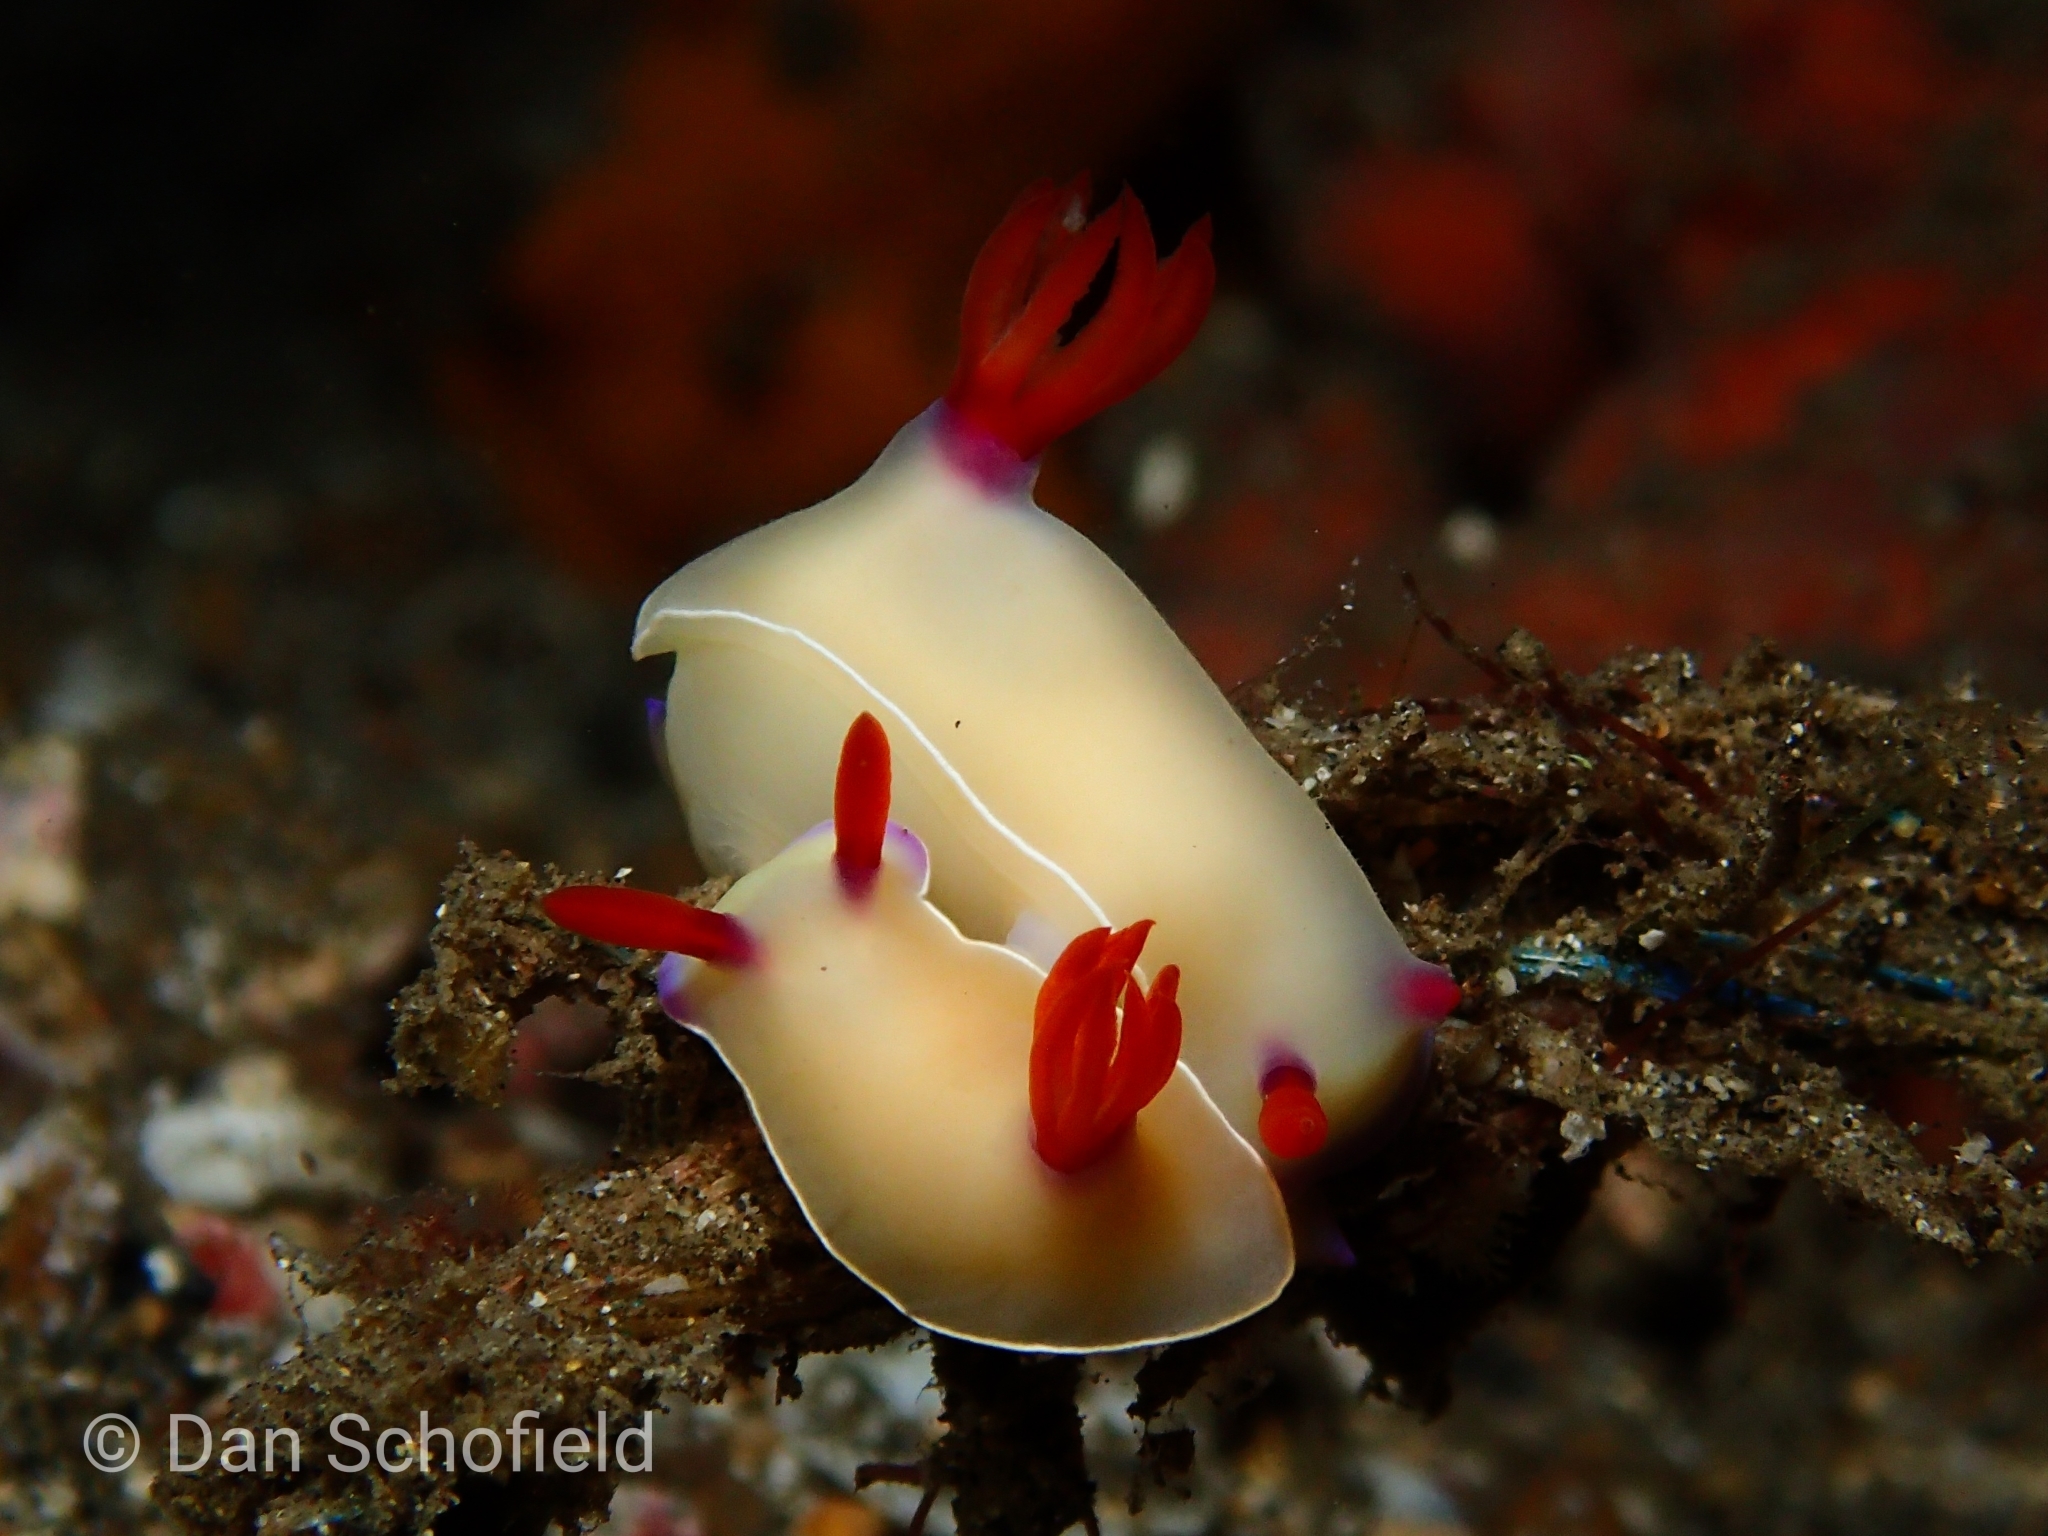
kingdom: Animalia
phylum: Mollusca
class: Gastropoda
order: Nudibranchia
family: Chromodorididae
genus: Hypselodoris
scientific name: Hypselodoris bullockii
